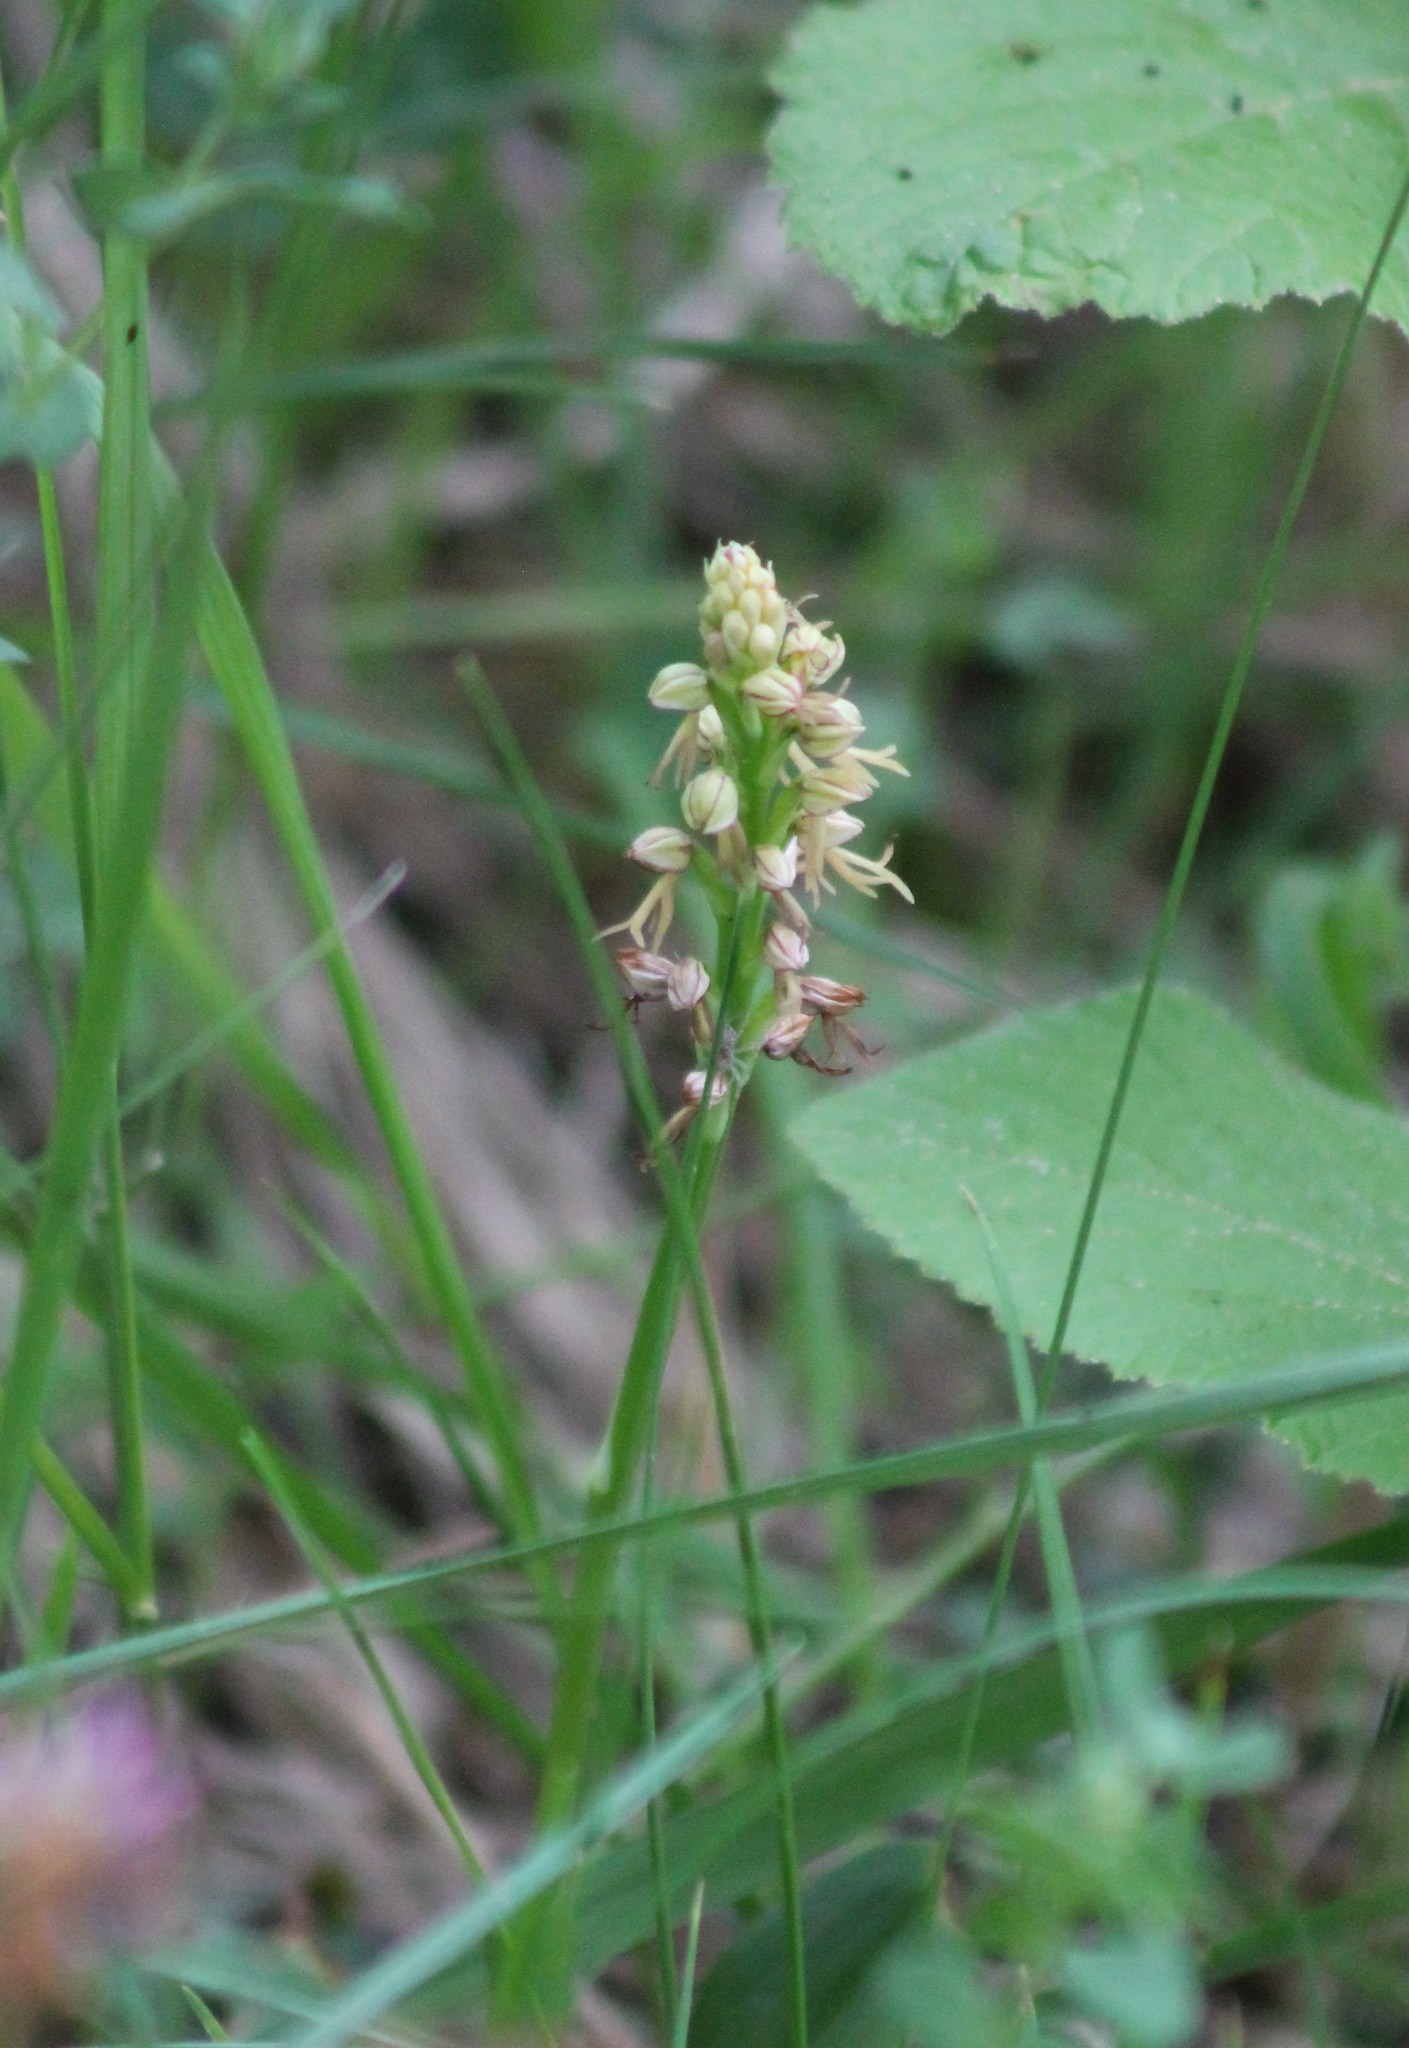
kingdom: Plantae
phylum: Tracheophyta
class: Liliopsida
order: Asparagales
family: Orchidaceae
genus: Orchis
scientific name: Orchis anthropophora
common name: Man orchid
